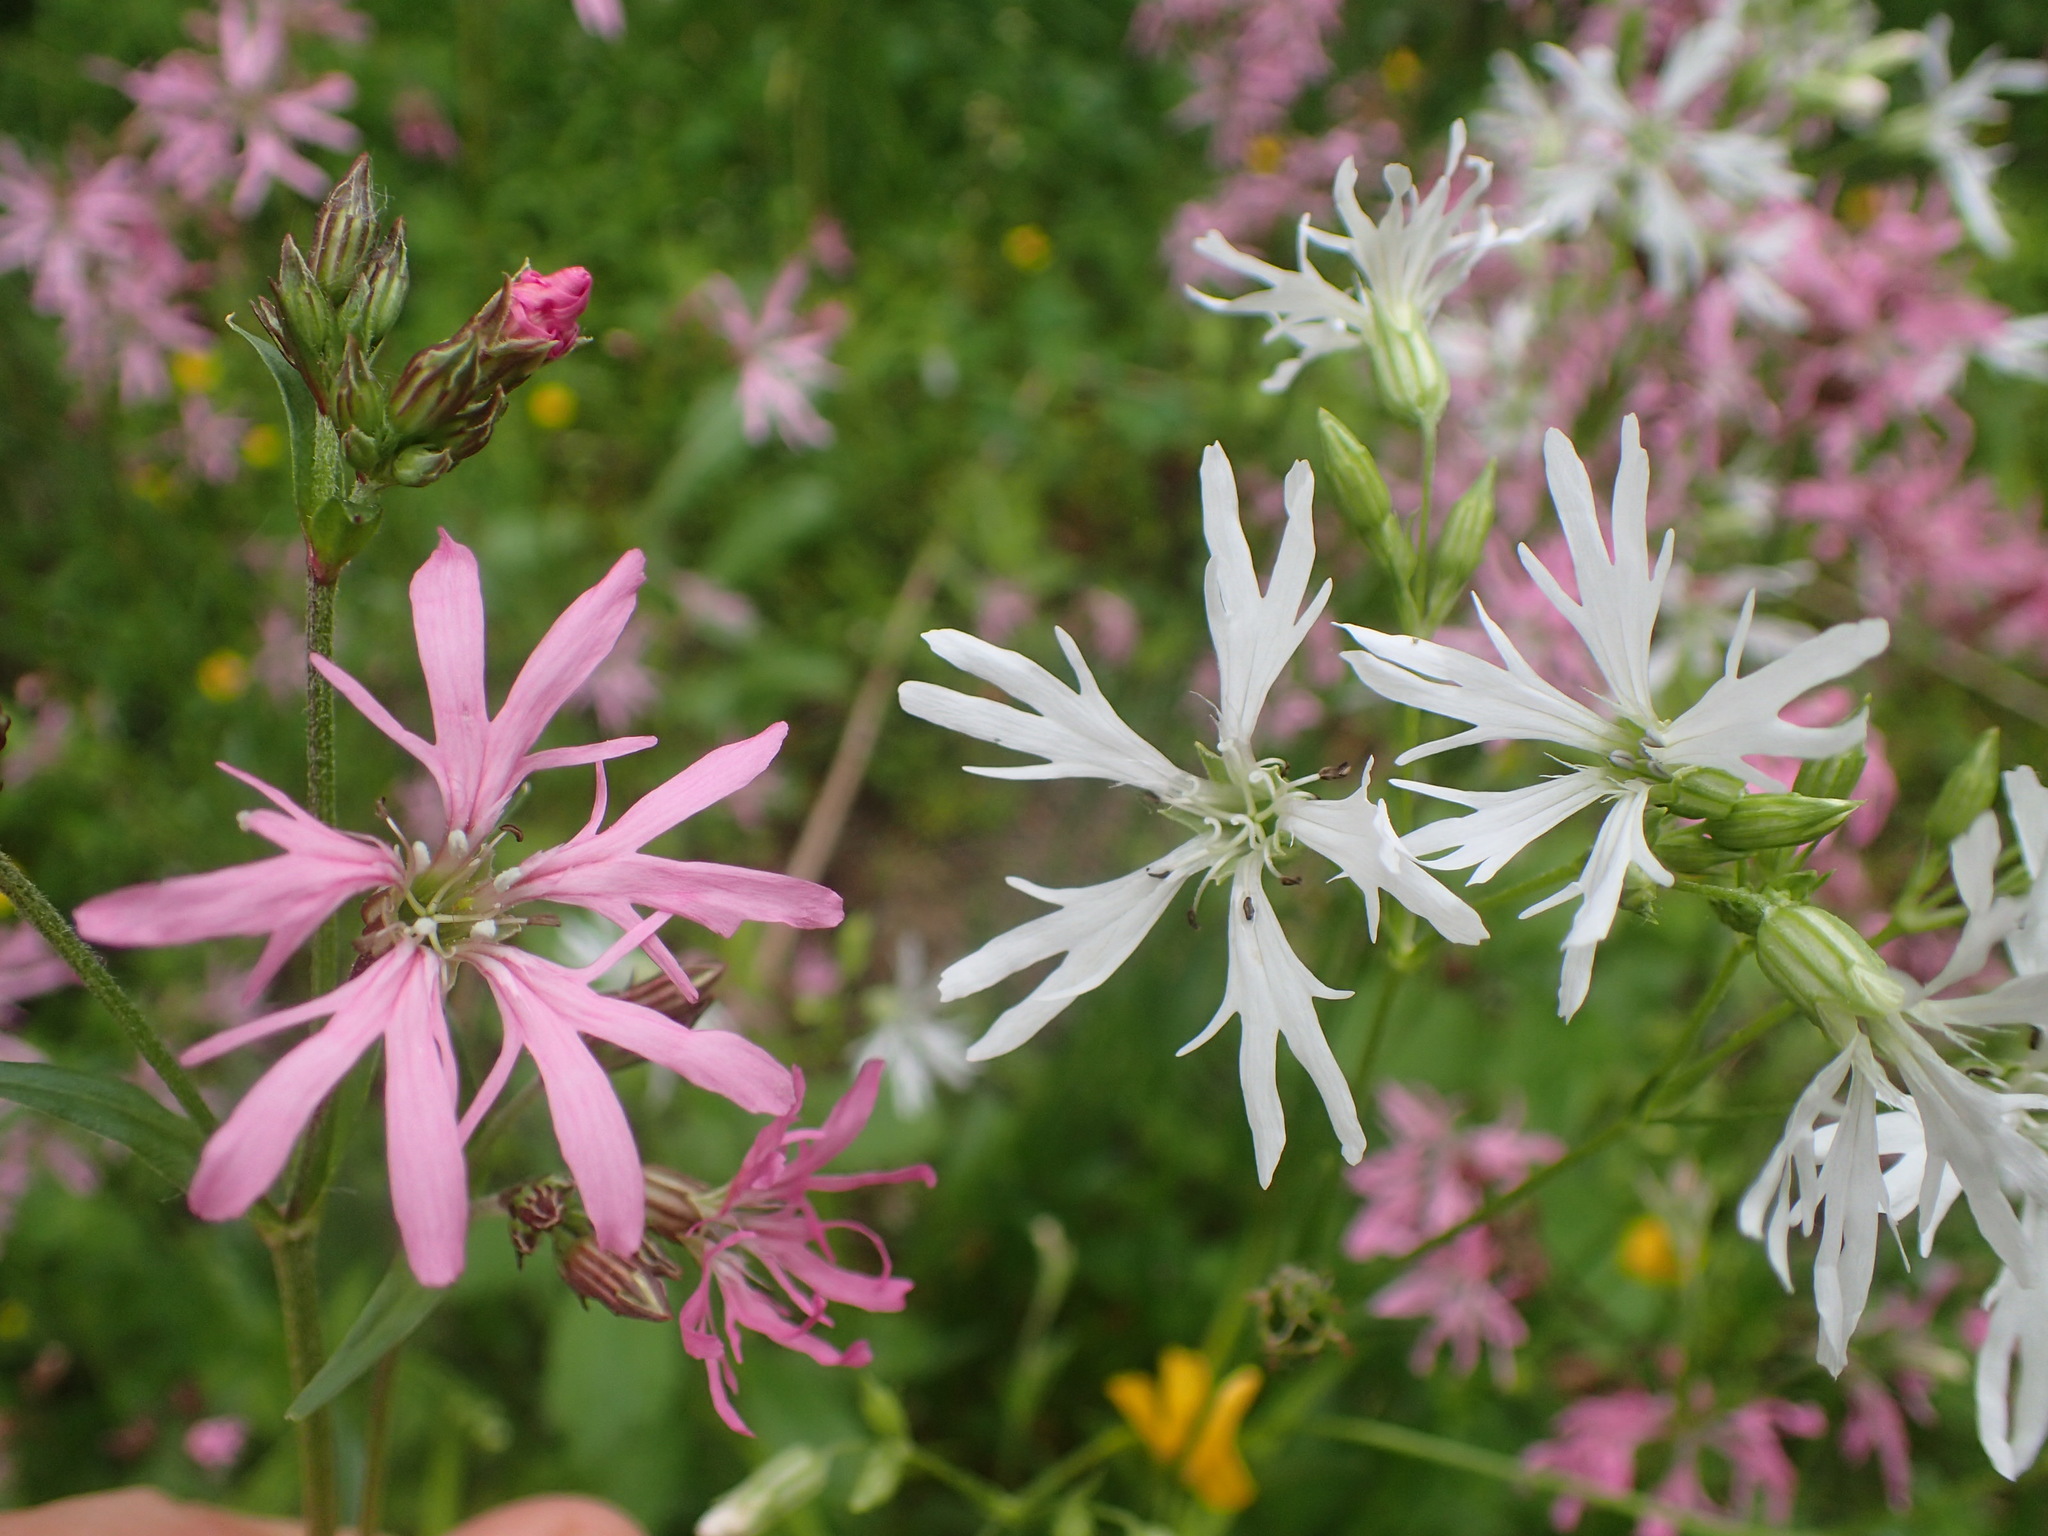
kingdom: Plantae
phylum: Tracheophyta
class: Magnoliopsida
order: Caryophyllales
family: Caryophyllaceae
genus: Silene
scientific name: Silene flos-cuculi
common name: Ragged-robin
